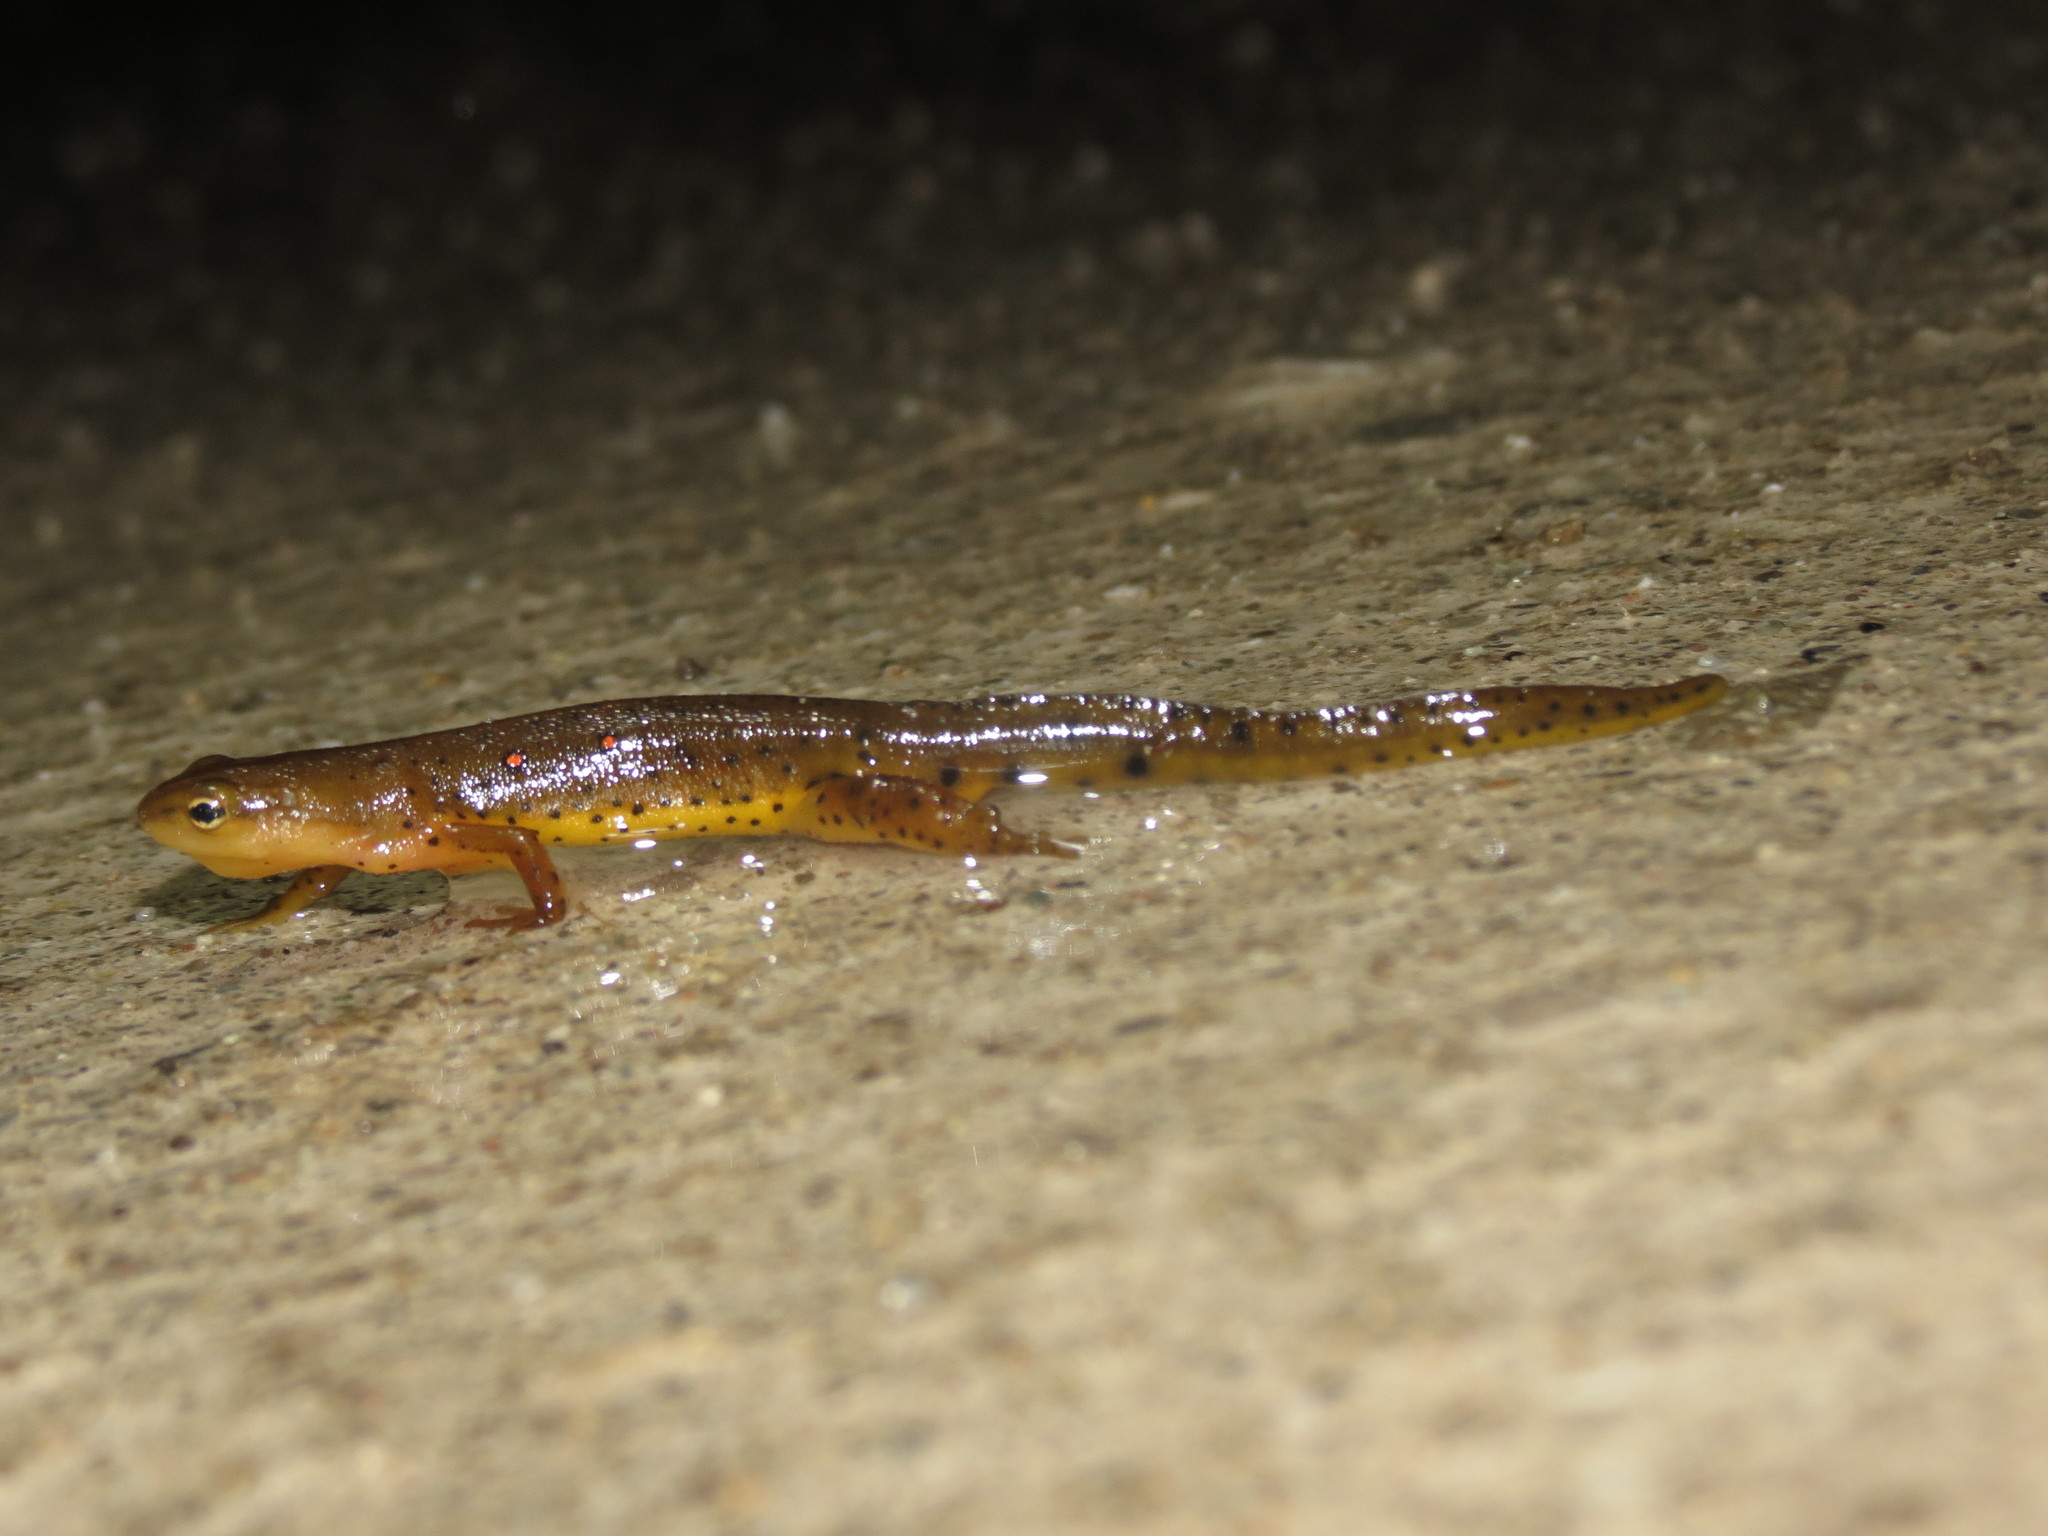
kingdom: Animalia
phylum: Chordata
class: Amphibia
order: Caudata
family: Salamandridae
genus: Notophthalmus
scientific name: Notophthalmus viridescens
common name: Eastern newt
